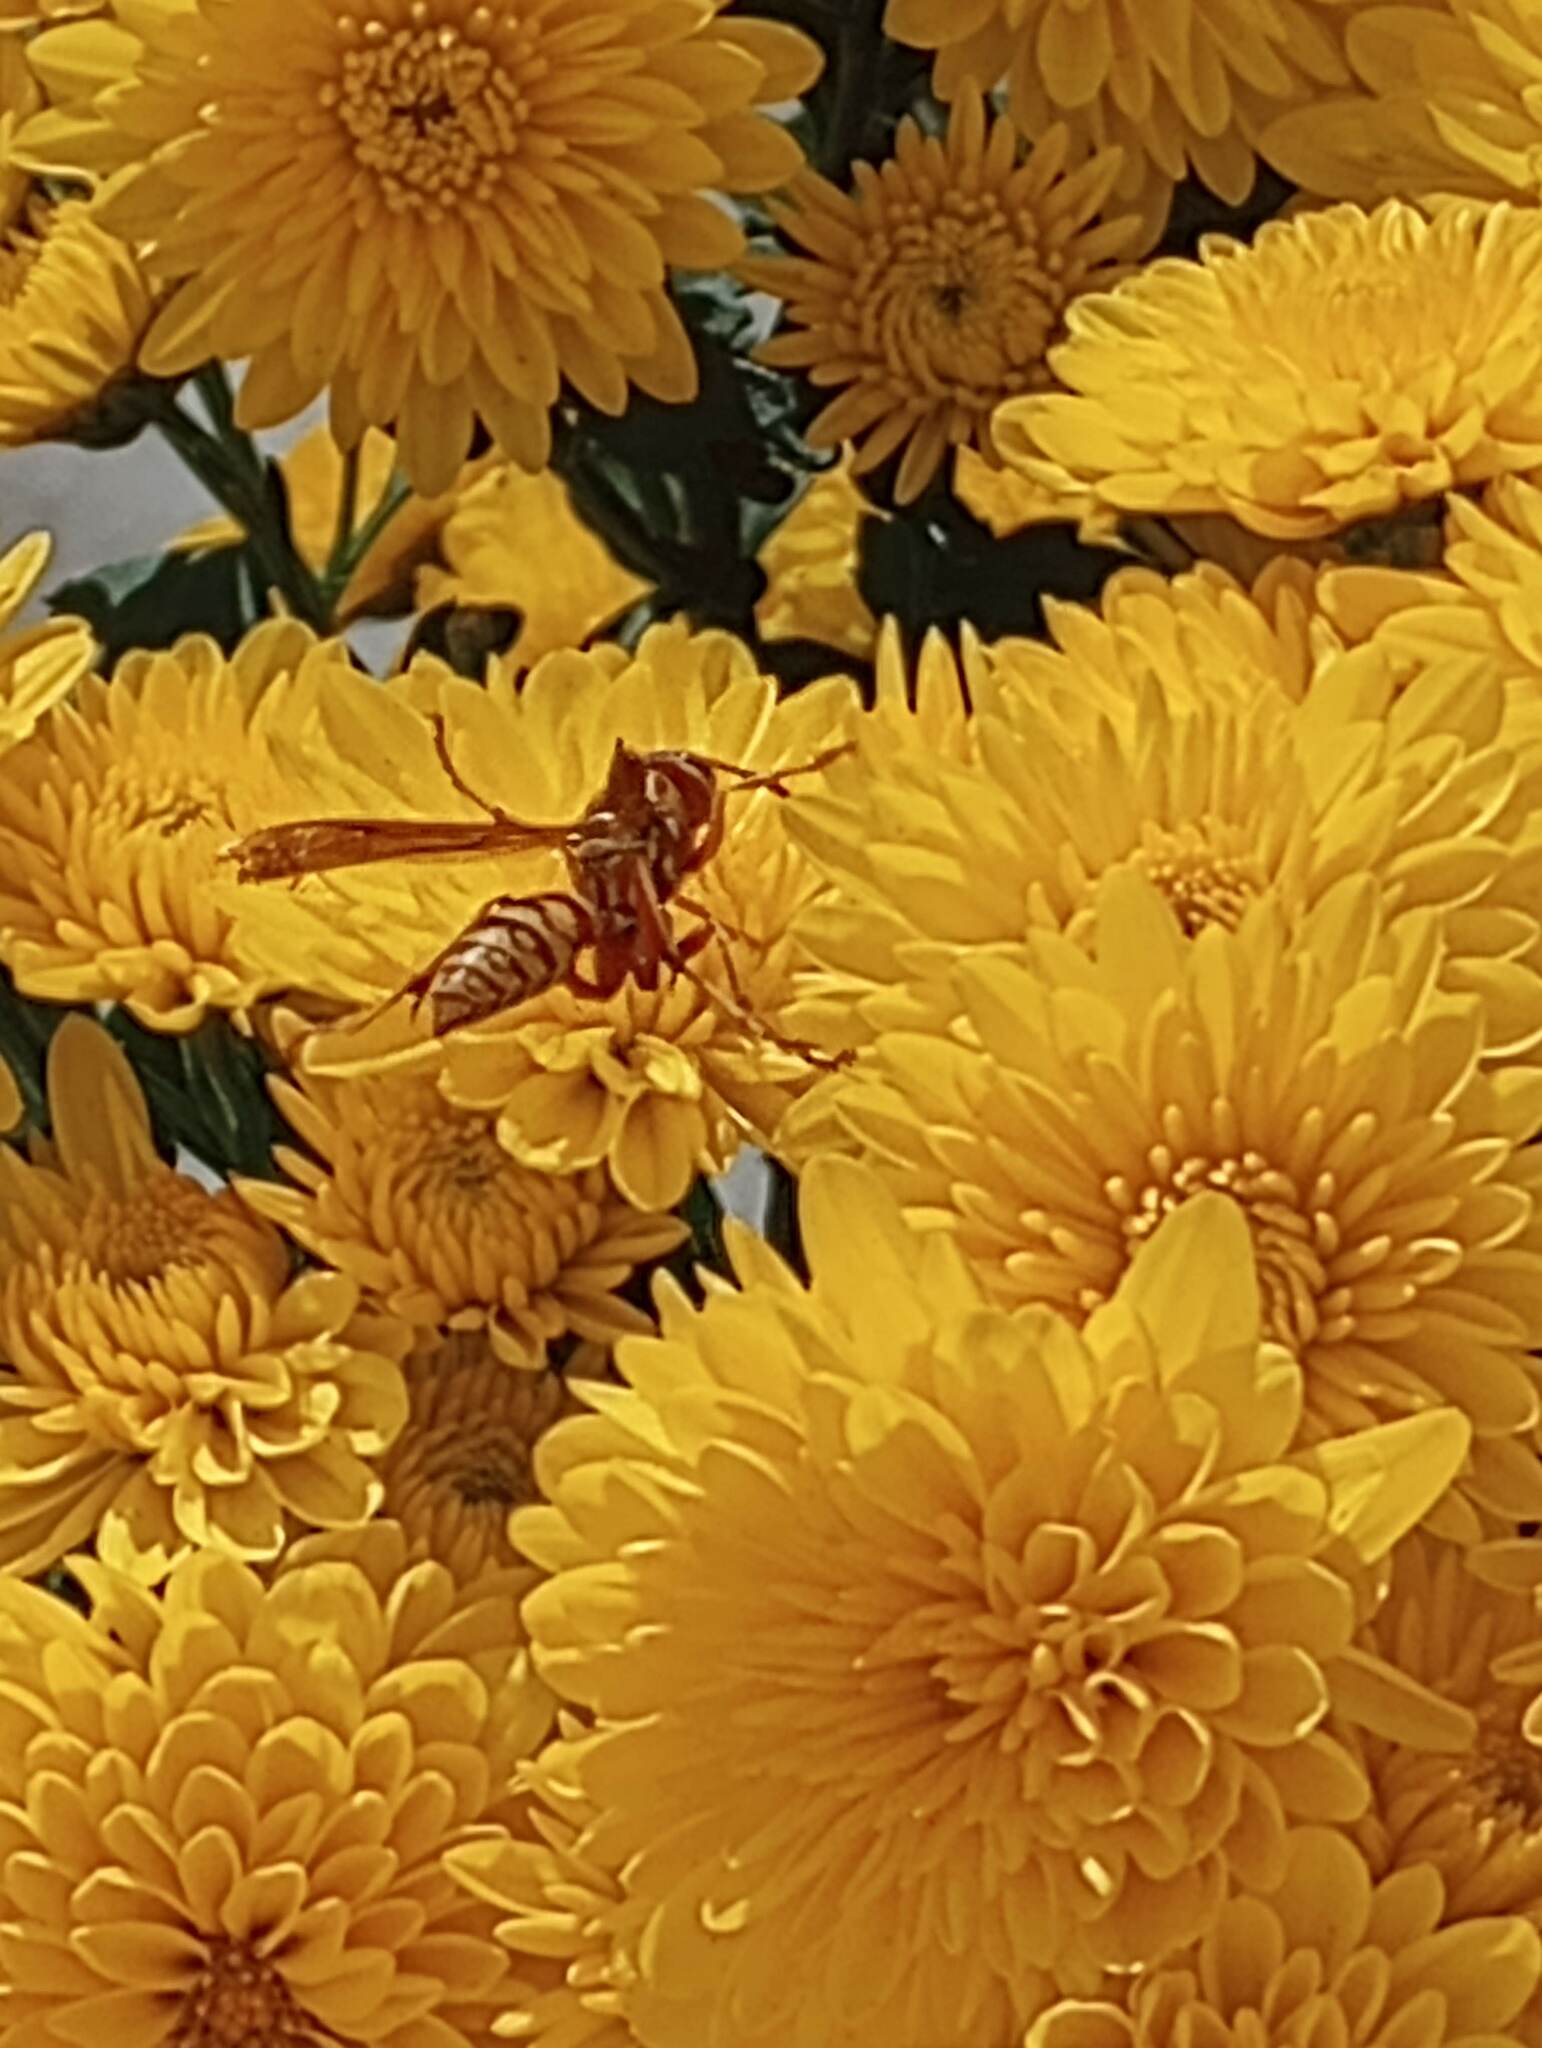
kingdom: Animalia
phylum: Arthropoda
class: Insecta
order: Hymenoptera
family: Eumenidae
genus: Polistes
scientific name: Polistes apachus
